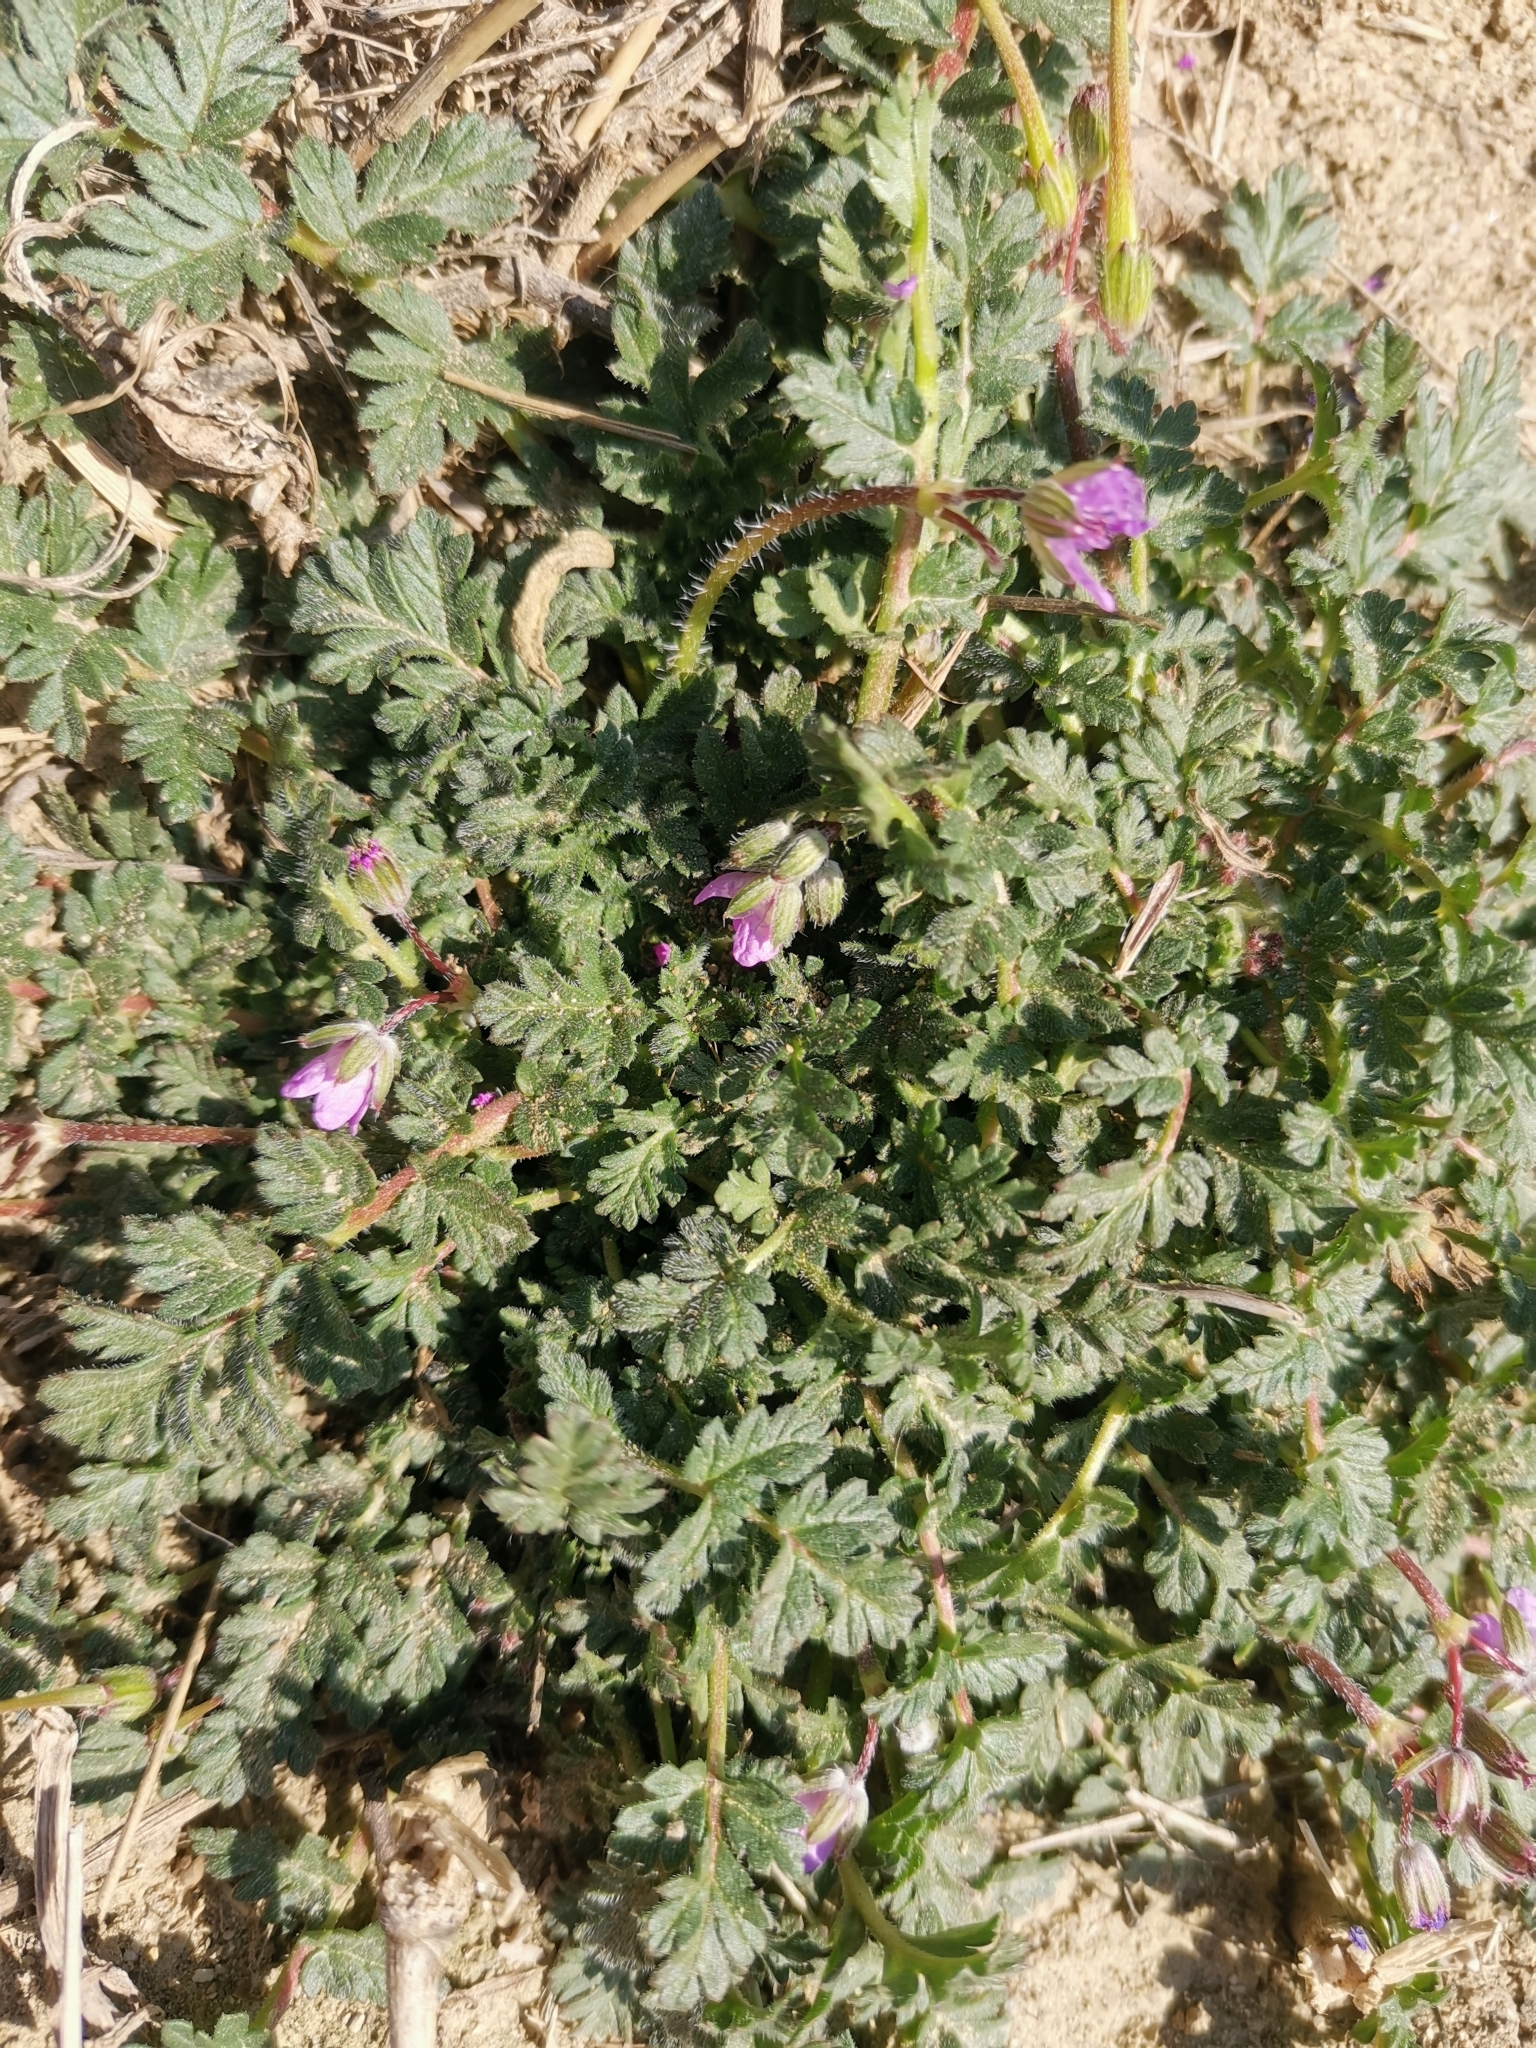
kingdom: Plantae
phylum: Tracheophyta
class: Magnoliopsida
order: Geraniales
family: Geraniaceae
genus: Erodium
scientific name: Erodium cicutarium
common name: Common stork's-bill
